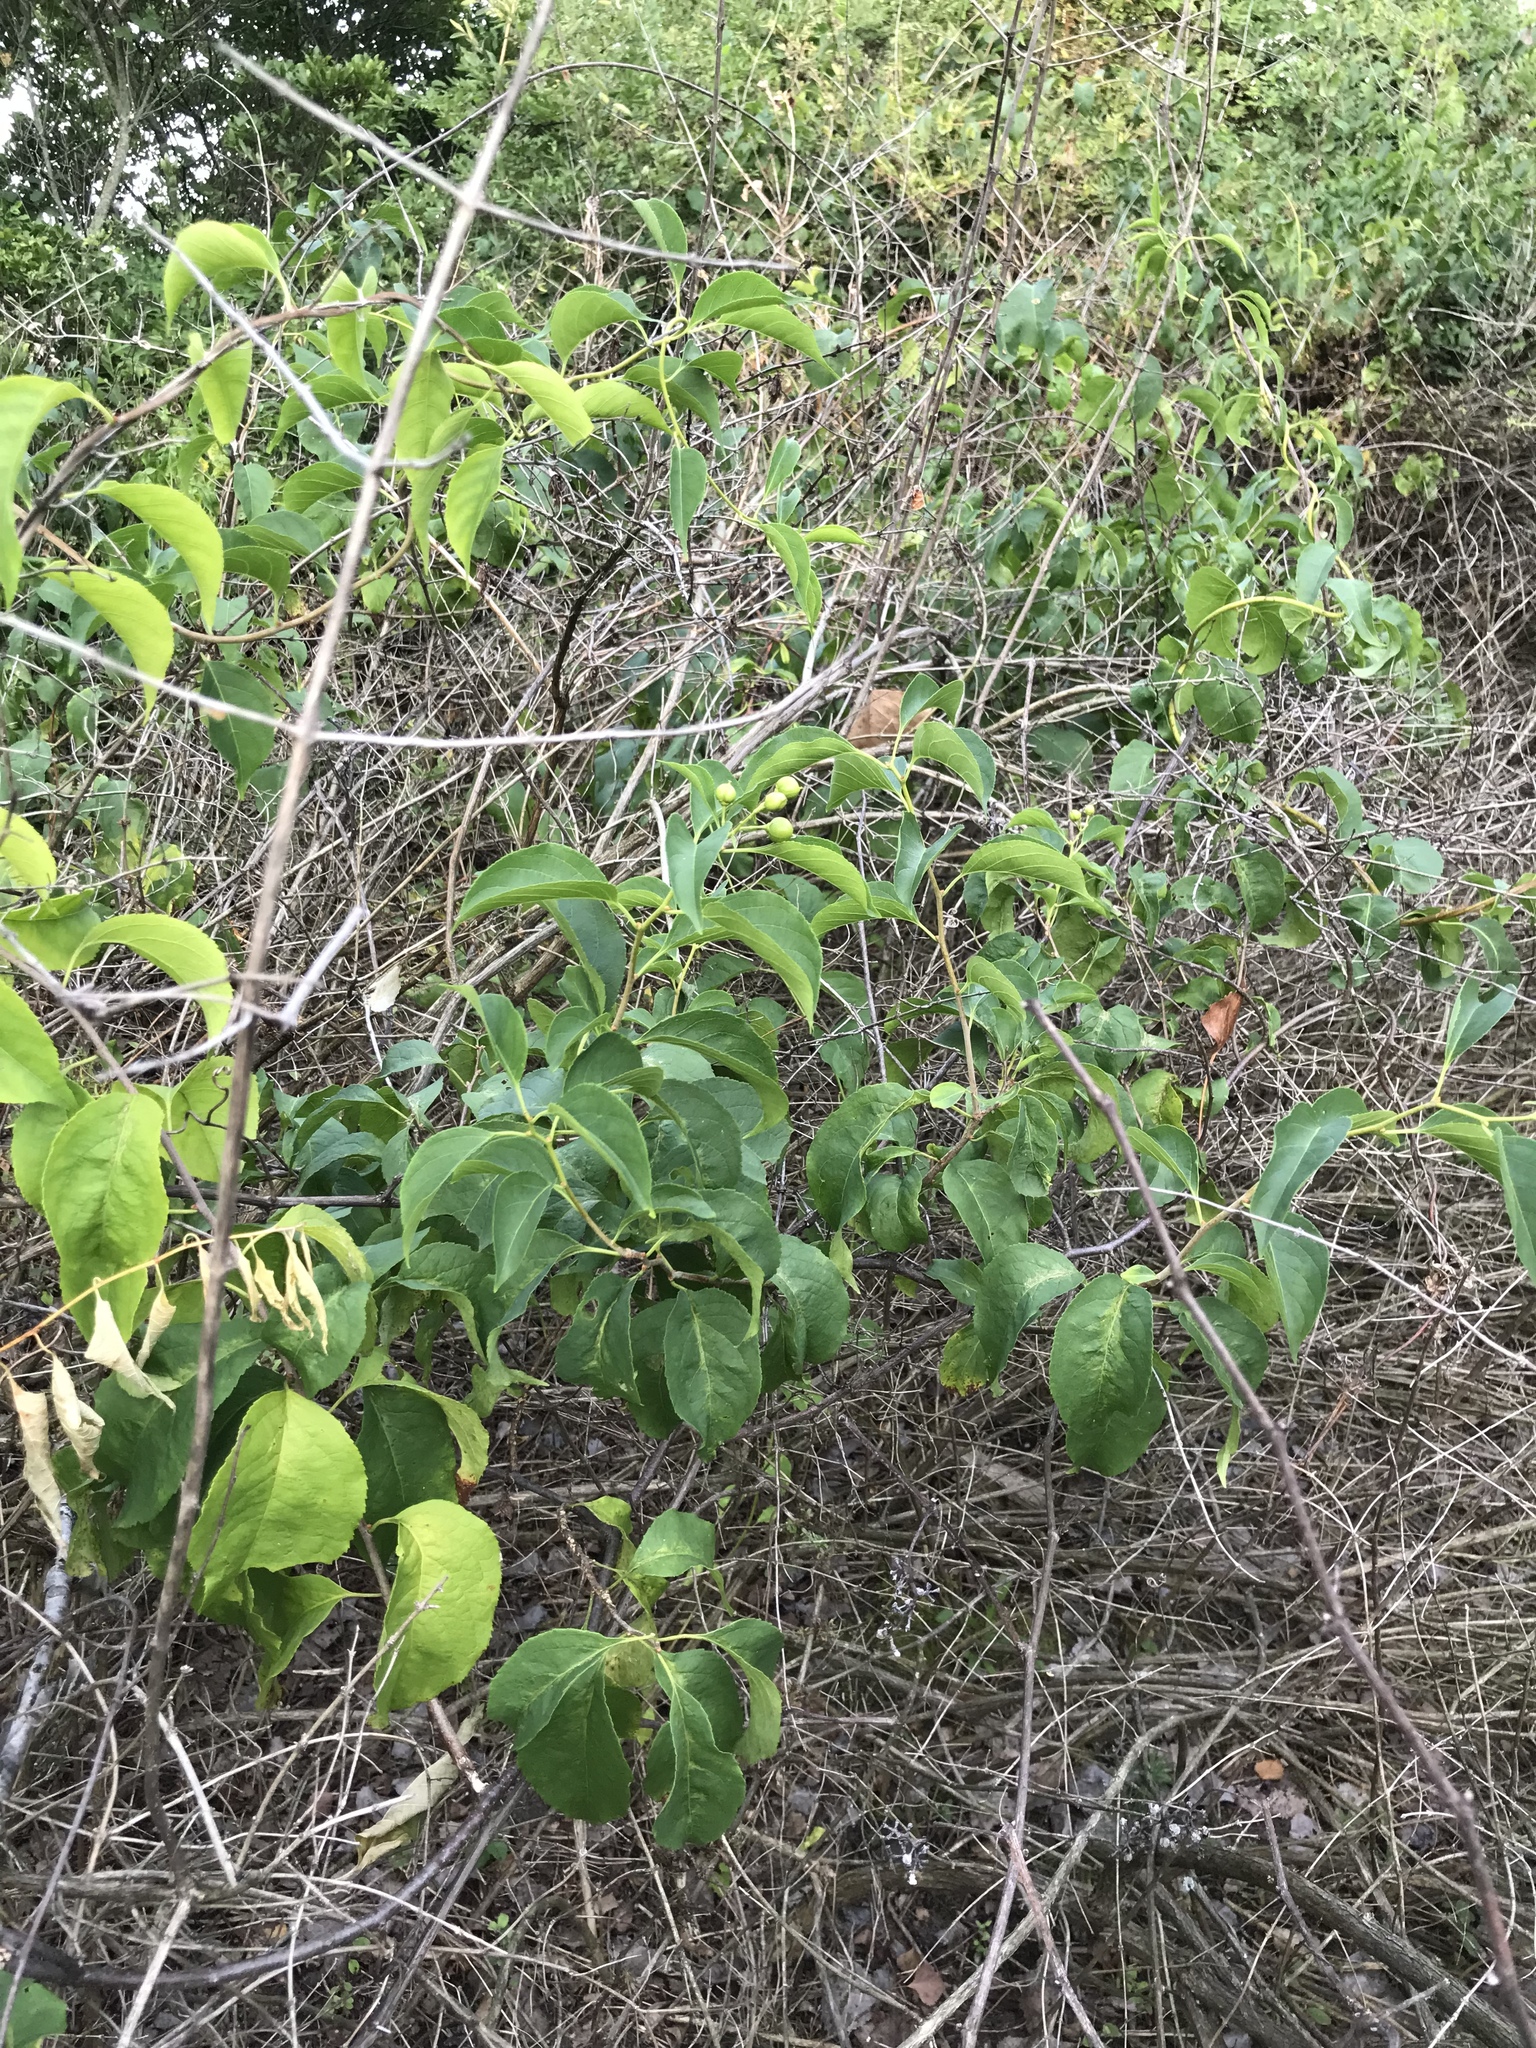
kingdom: Plantae
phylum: Tracheophyta
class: Magnoliopsida
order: Celastrales
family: Celastraceae
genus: Celastrus
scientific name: Celastrus scandens
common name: American bittersweet
